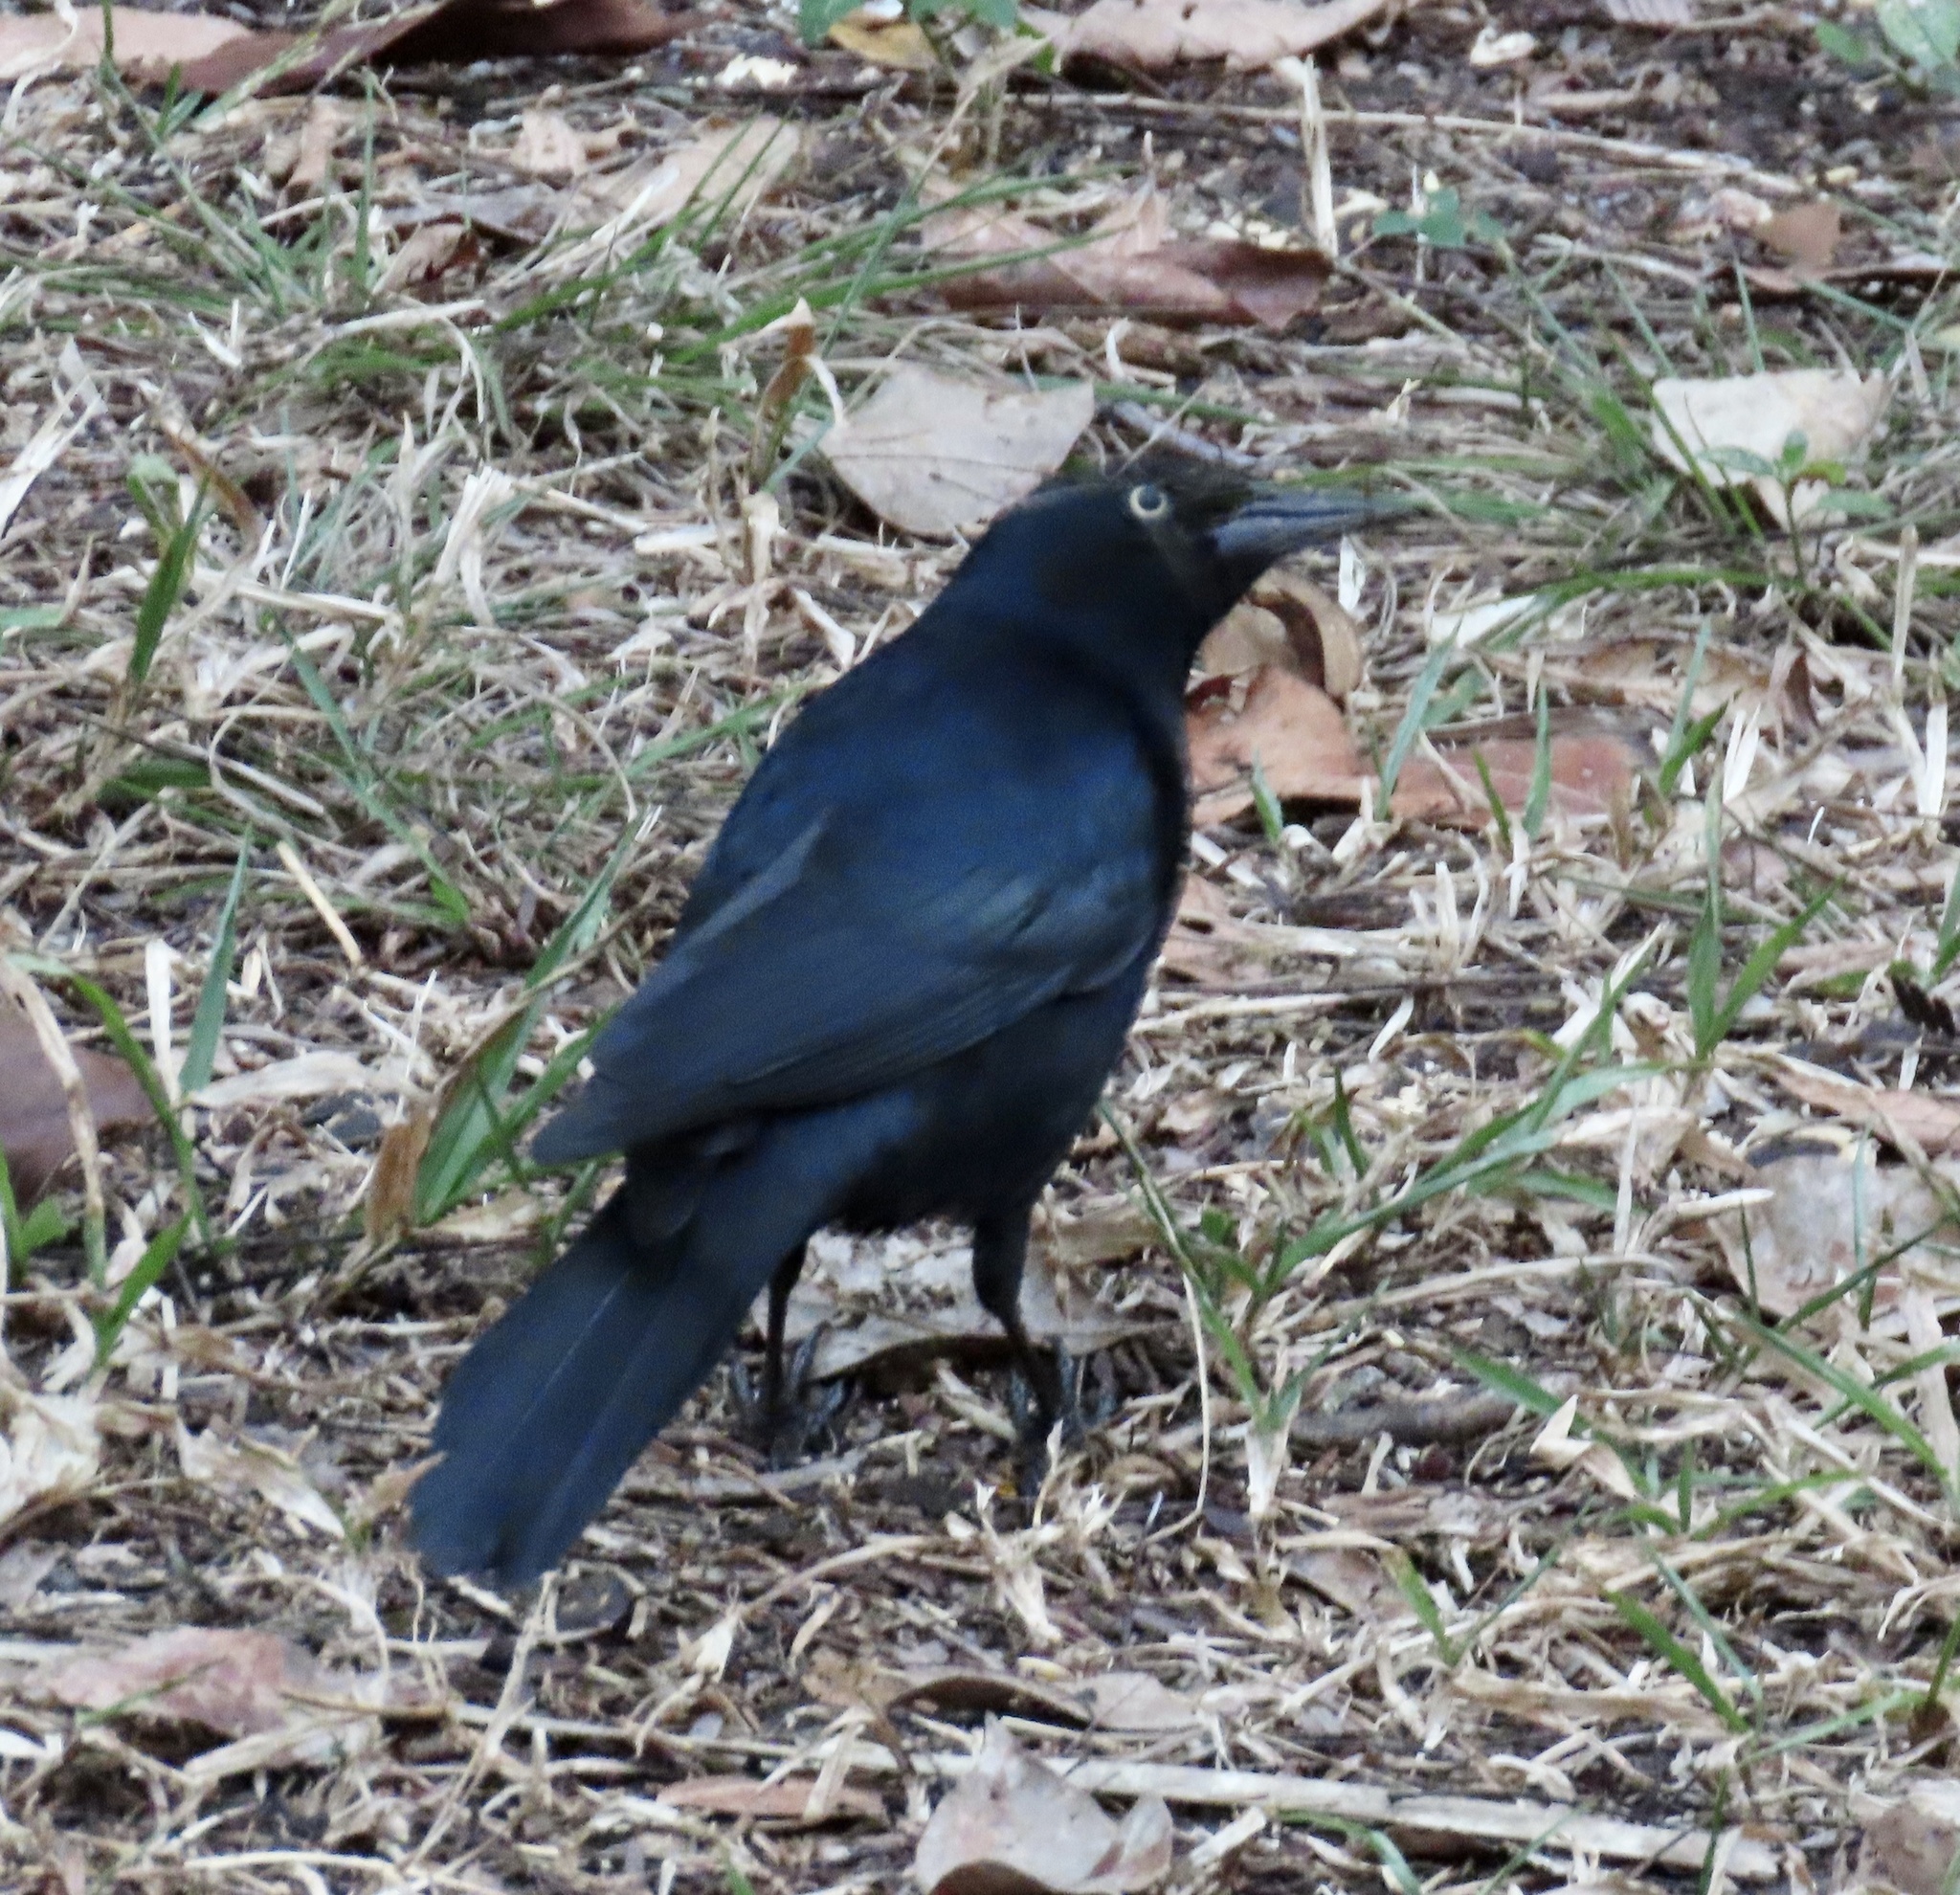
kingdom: Animalia
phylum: Chordata
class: Aves
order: Passeriformes
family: Icteridae
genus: Quiscalus
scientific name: Quiscalus niger
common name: Greater antillean grackle
